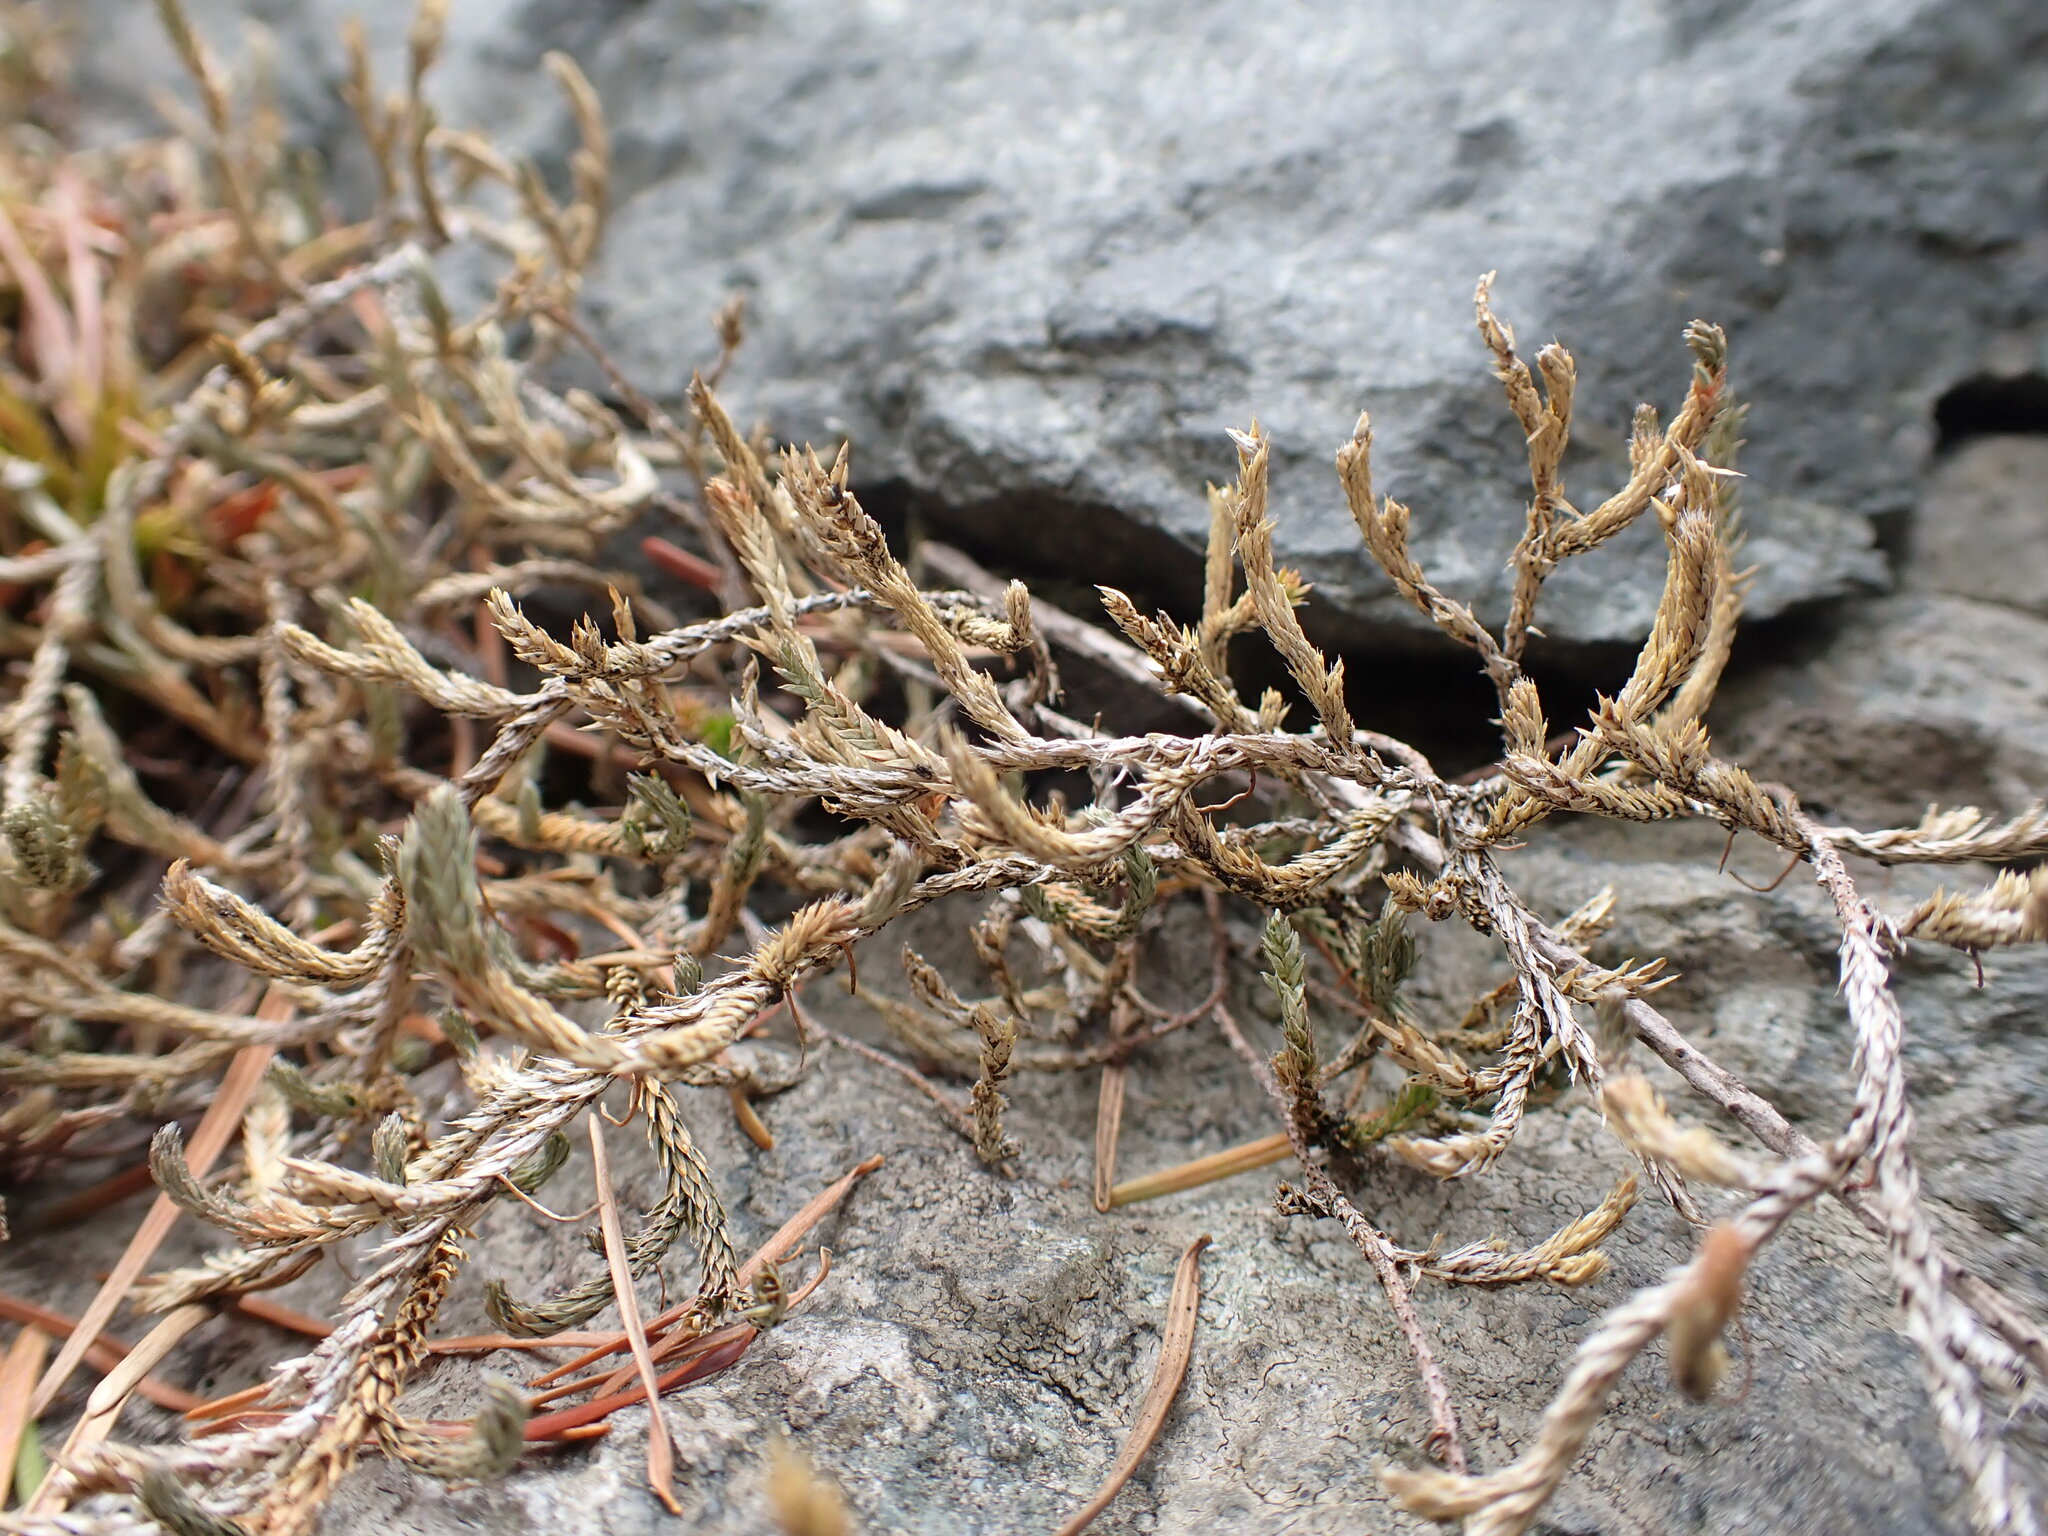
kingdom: Plantae
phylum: Tracheophyta
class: Lycopodiopsida
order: Selaginellales
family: Selaginellaceae
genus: Selaginella
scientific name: Selaginella wallacei
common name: Wallace's selaginella
